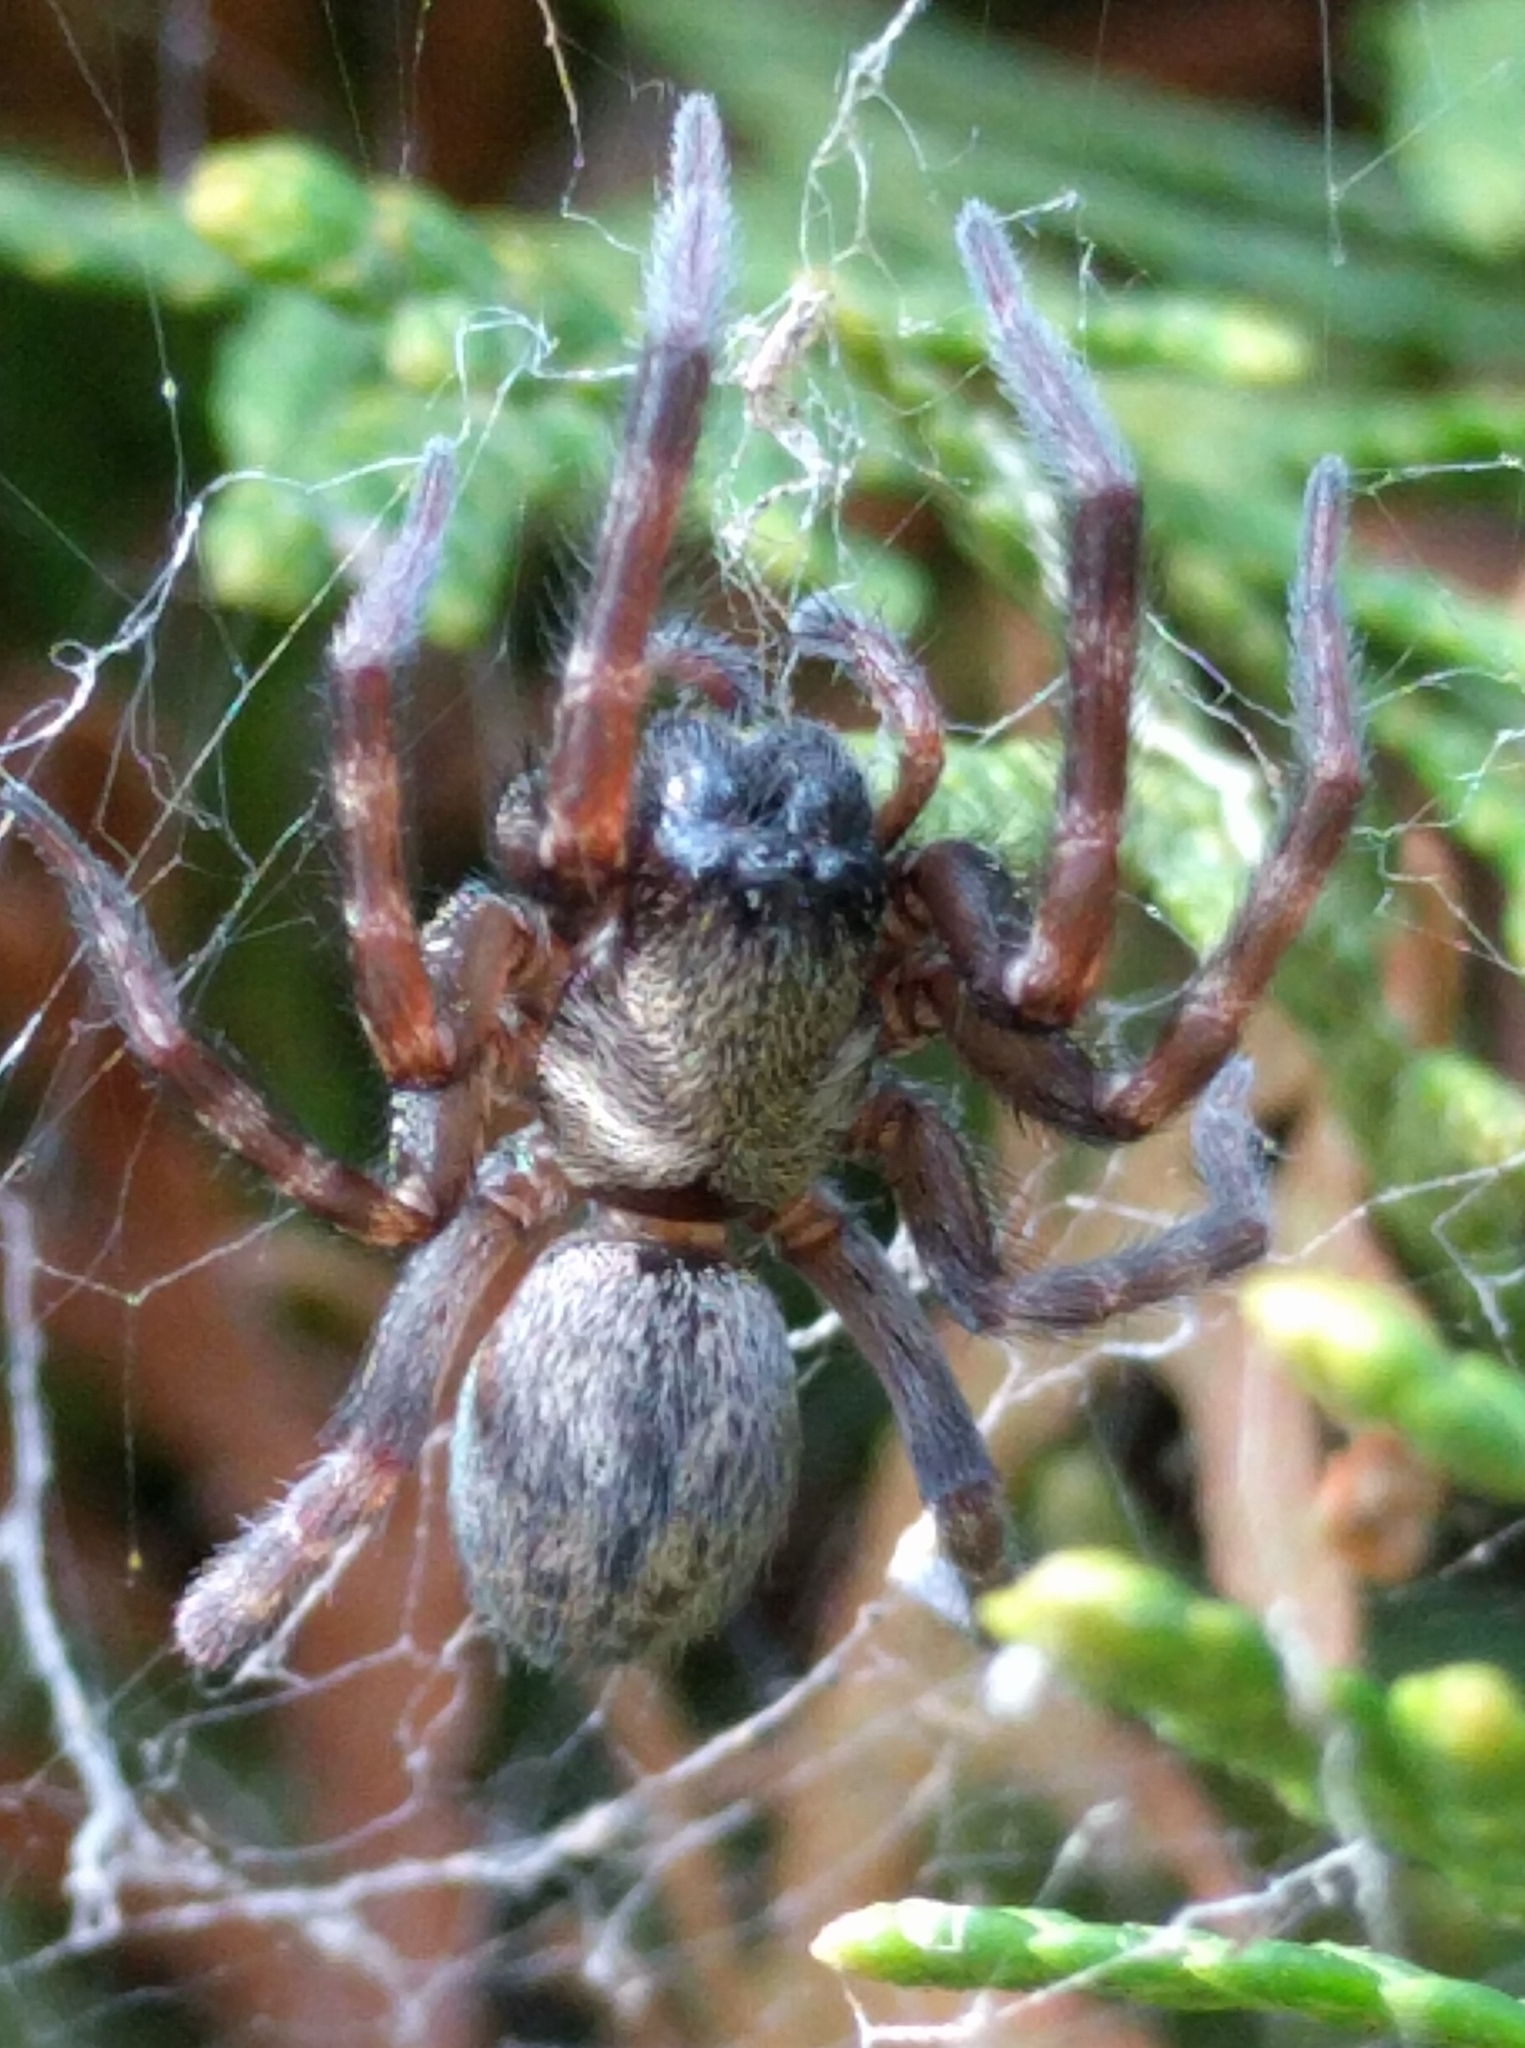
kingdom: Animalia
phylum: Arthropoda
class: Arachnida
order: Araneae
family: Desidae
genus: Badumna
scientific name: Badumna longinqua
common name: Gray house spider
